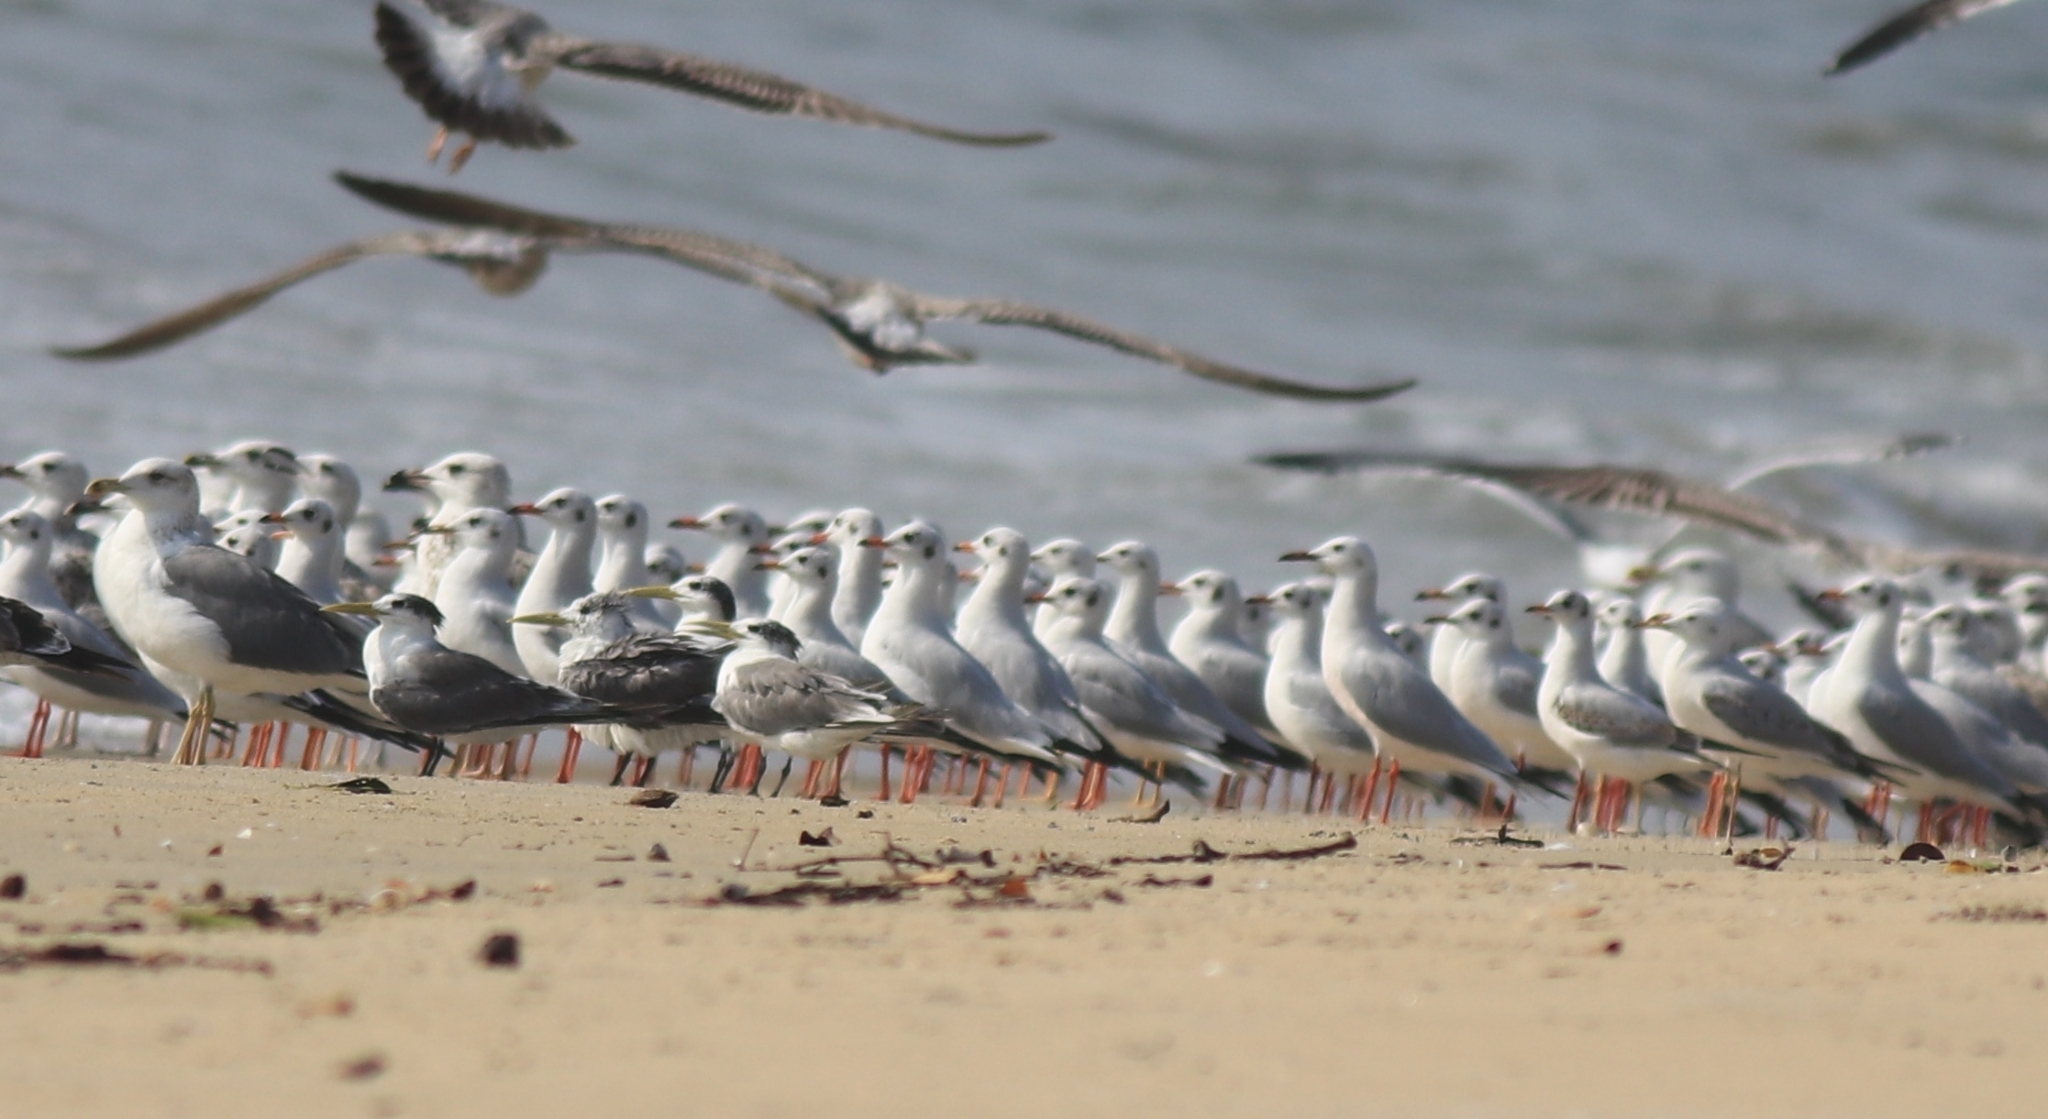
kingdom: Animalia
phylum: Chordata
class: Aves
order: Charadriiformes
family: Laridae
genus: Chroicocephalus
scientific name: Chroicocephalus brunnicephalus
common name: Brown-headed gull
